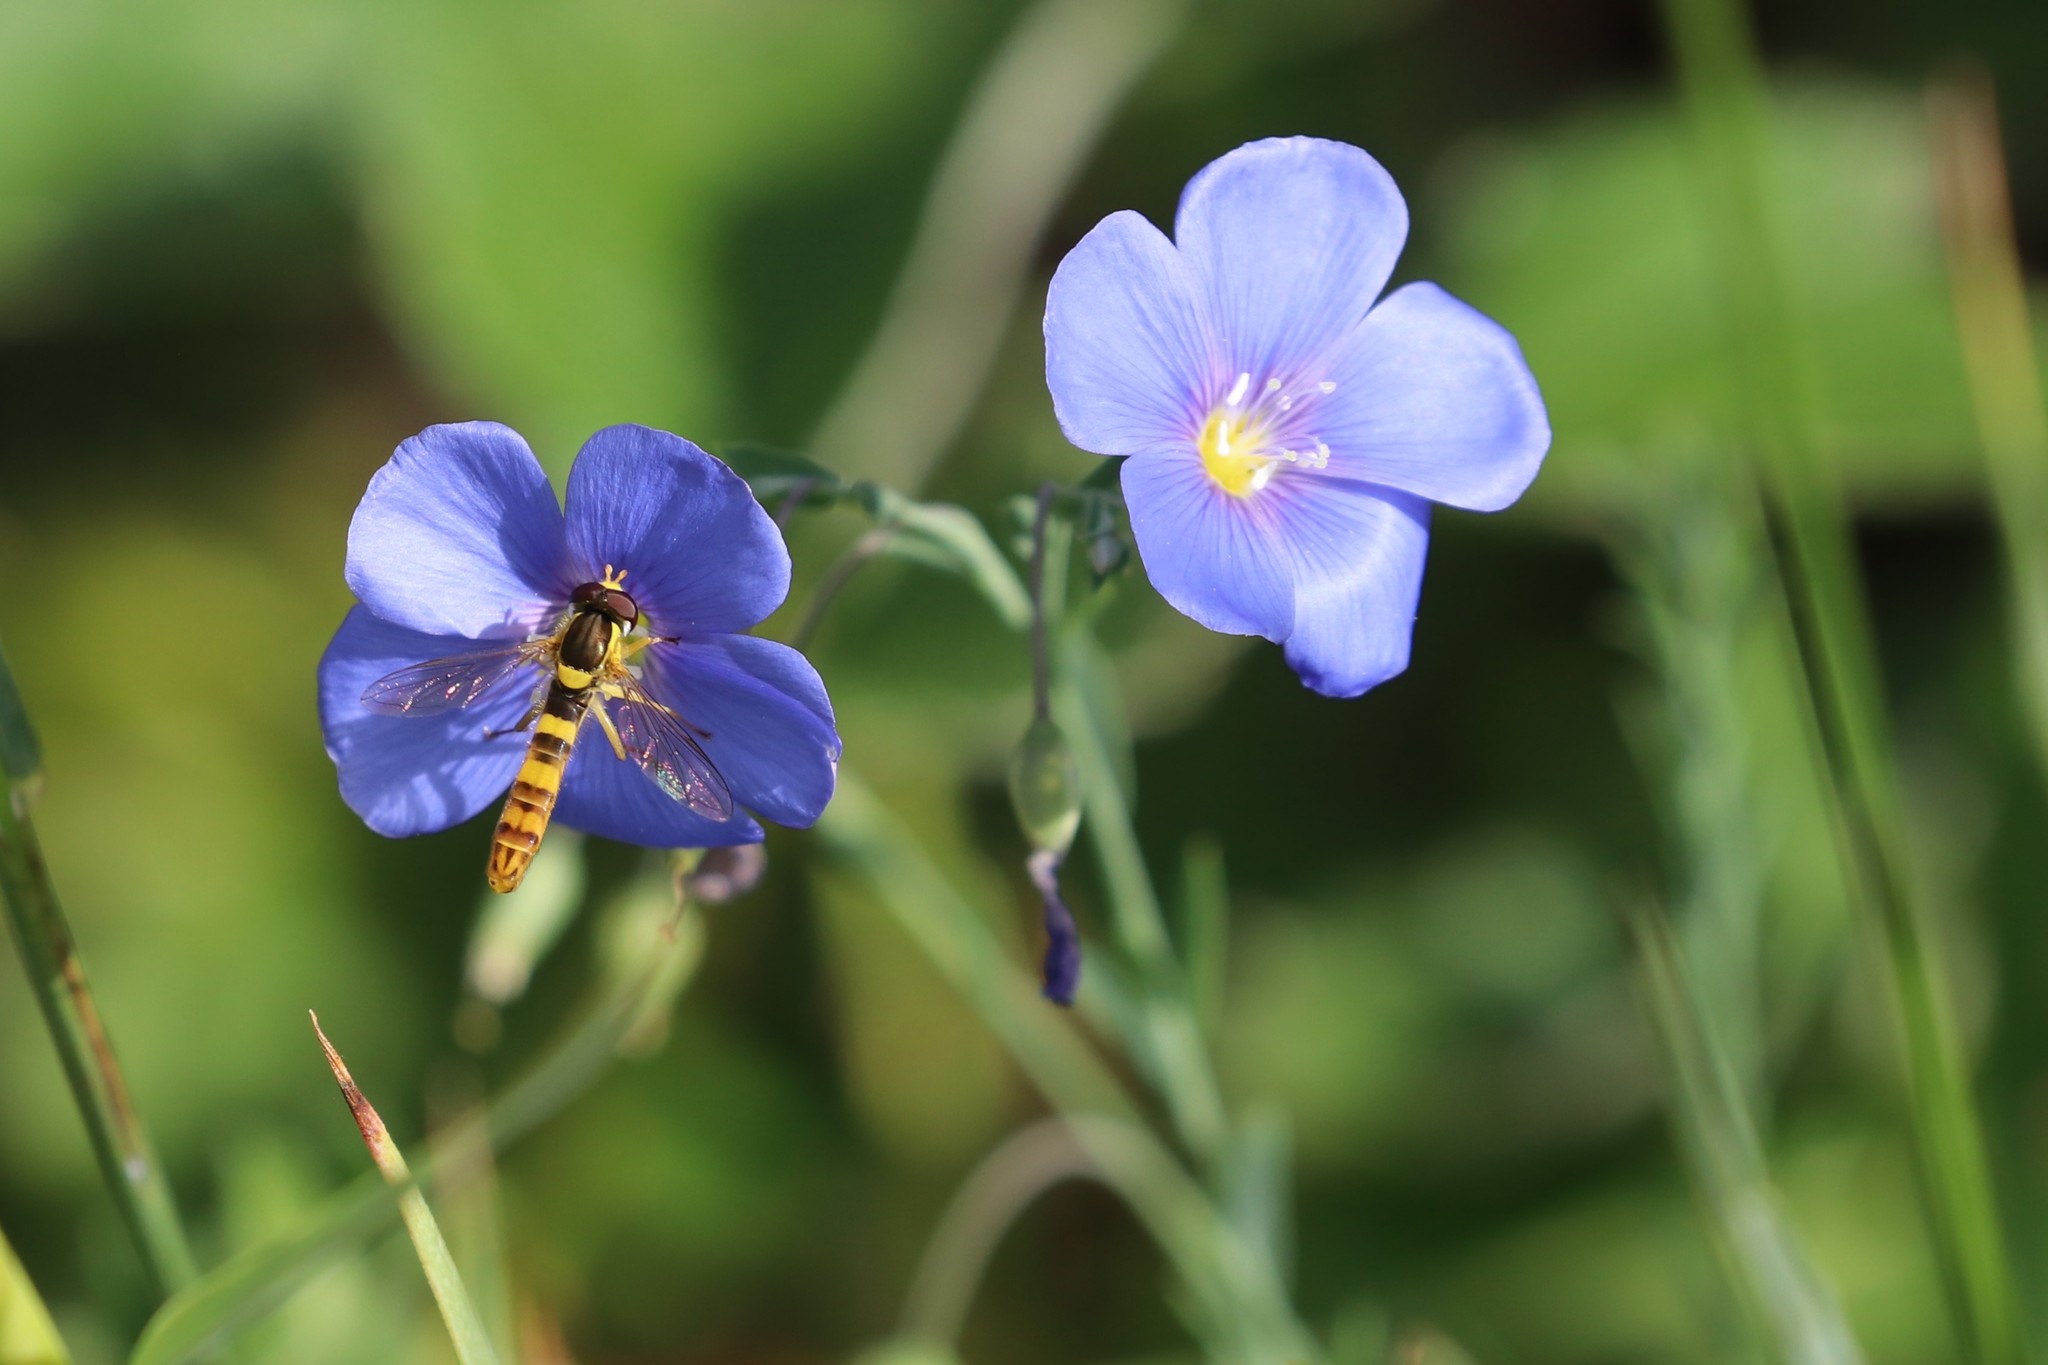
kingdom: Animalia
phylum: Arthropoda
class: Insecta
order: Diptera
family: Syrphidae
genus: Sphaerophoria
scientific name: Sphaerophoria scripta
